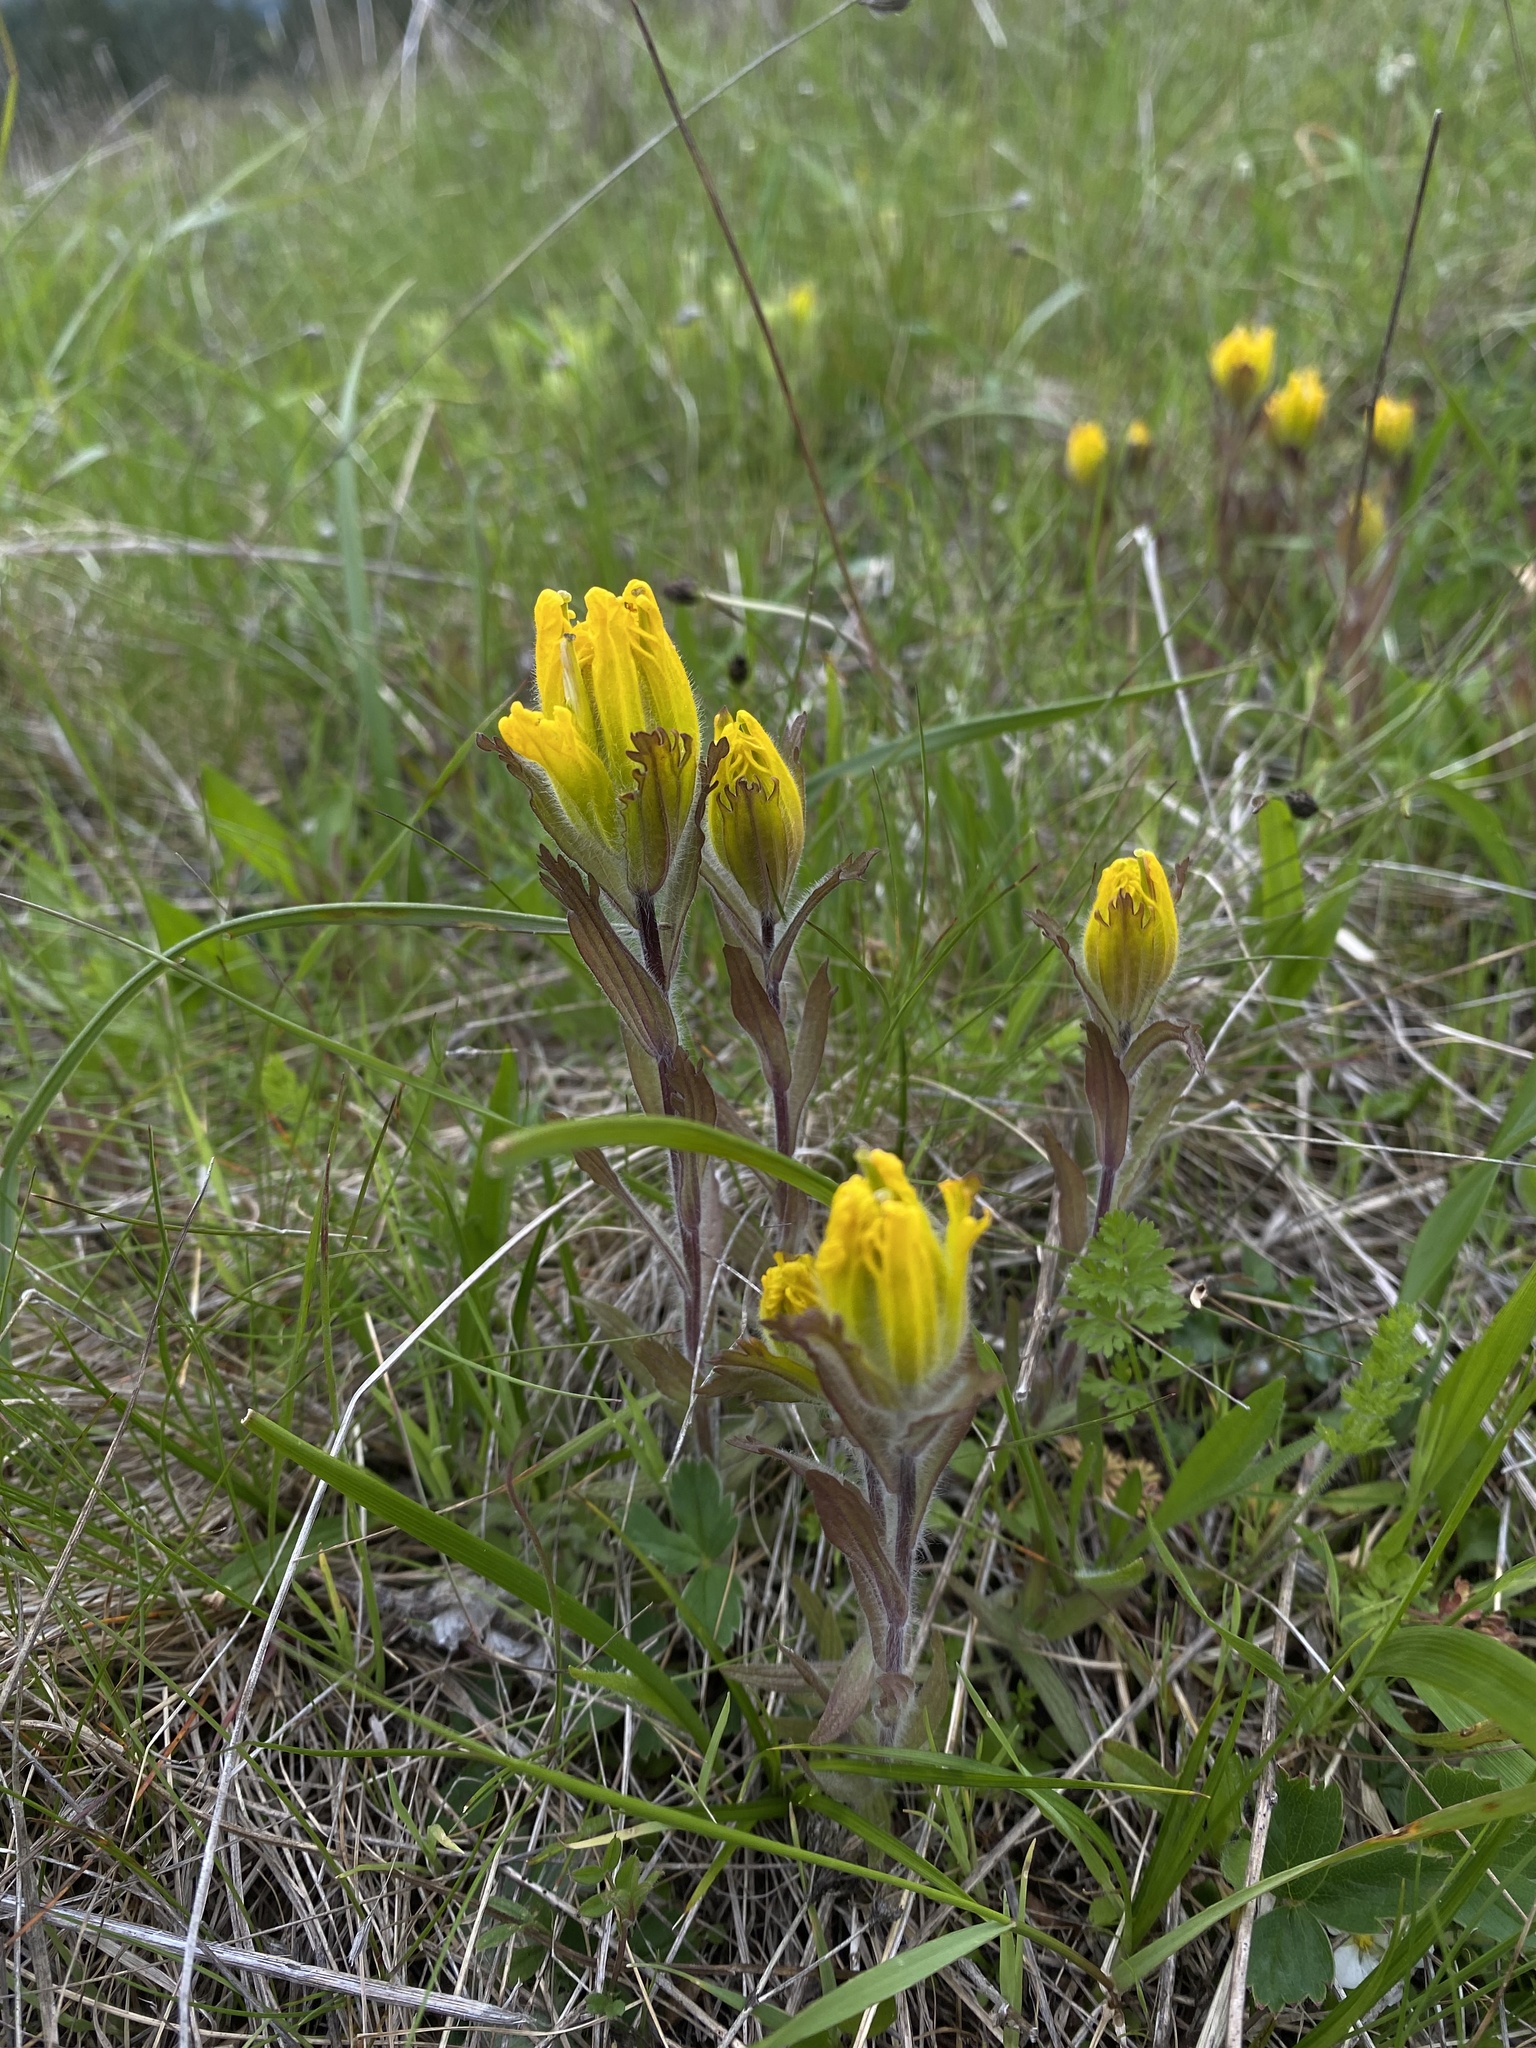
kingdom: Plantae
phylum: Tracheophyta
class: Magnoliopsida
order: Lamiales
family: Orobanchaceae
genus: Castilleja
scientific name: Castilleja levisecta
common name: Golden paintbrush
